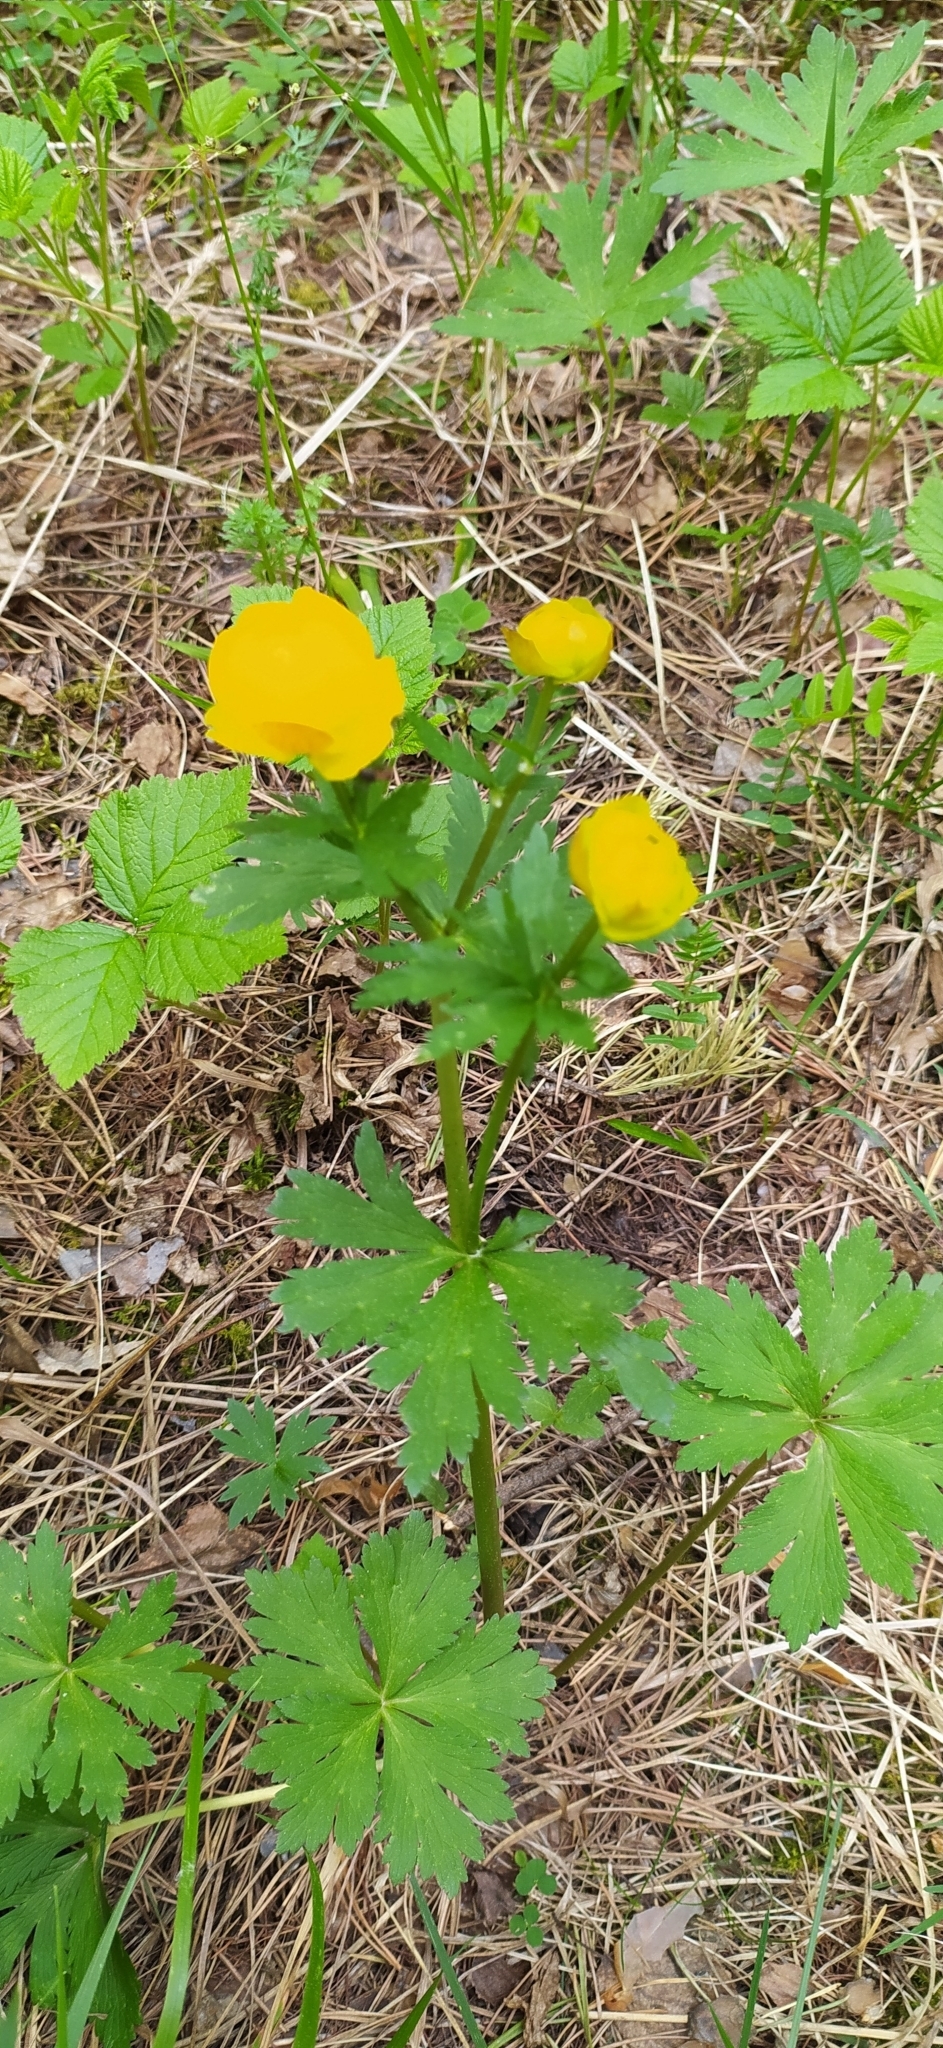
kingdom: Plantae
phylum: Tracheophyta
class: Magnoliopsida
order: Ranunculales
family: Ranunculaceae
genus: Trollius
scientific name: Trollius europaeus
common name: European globeflower
